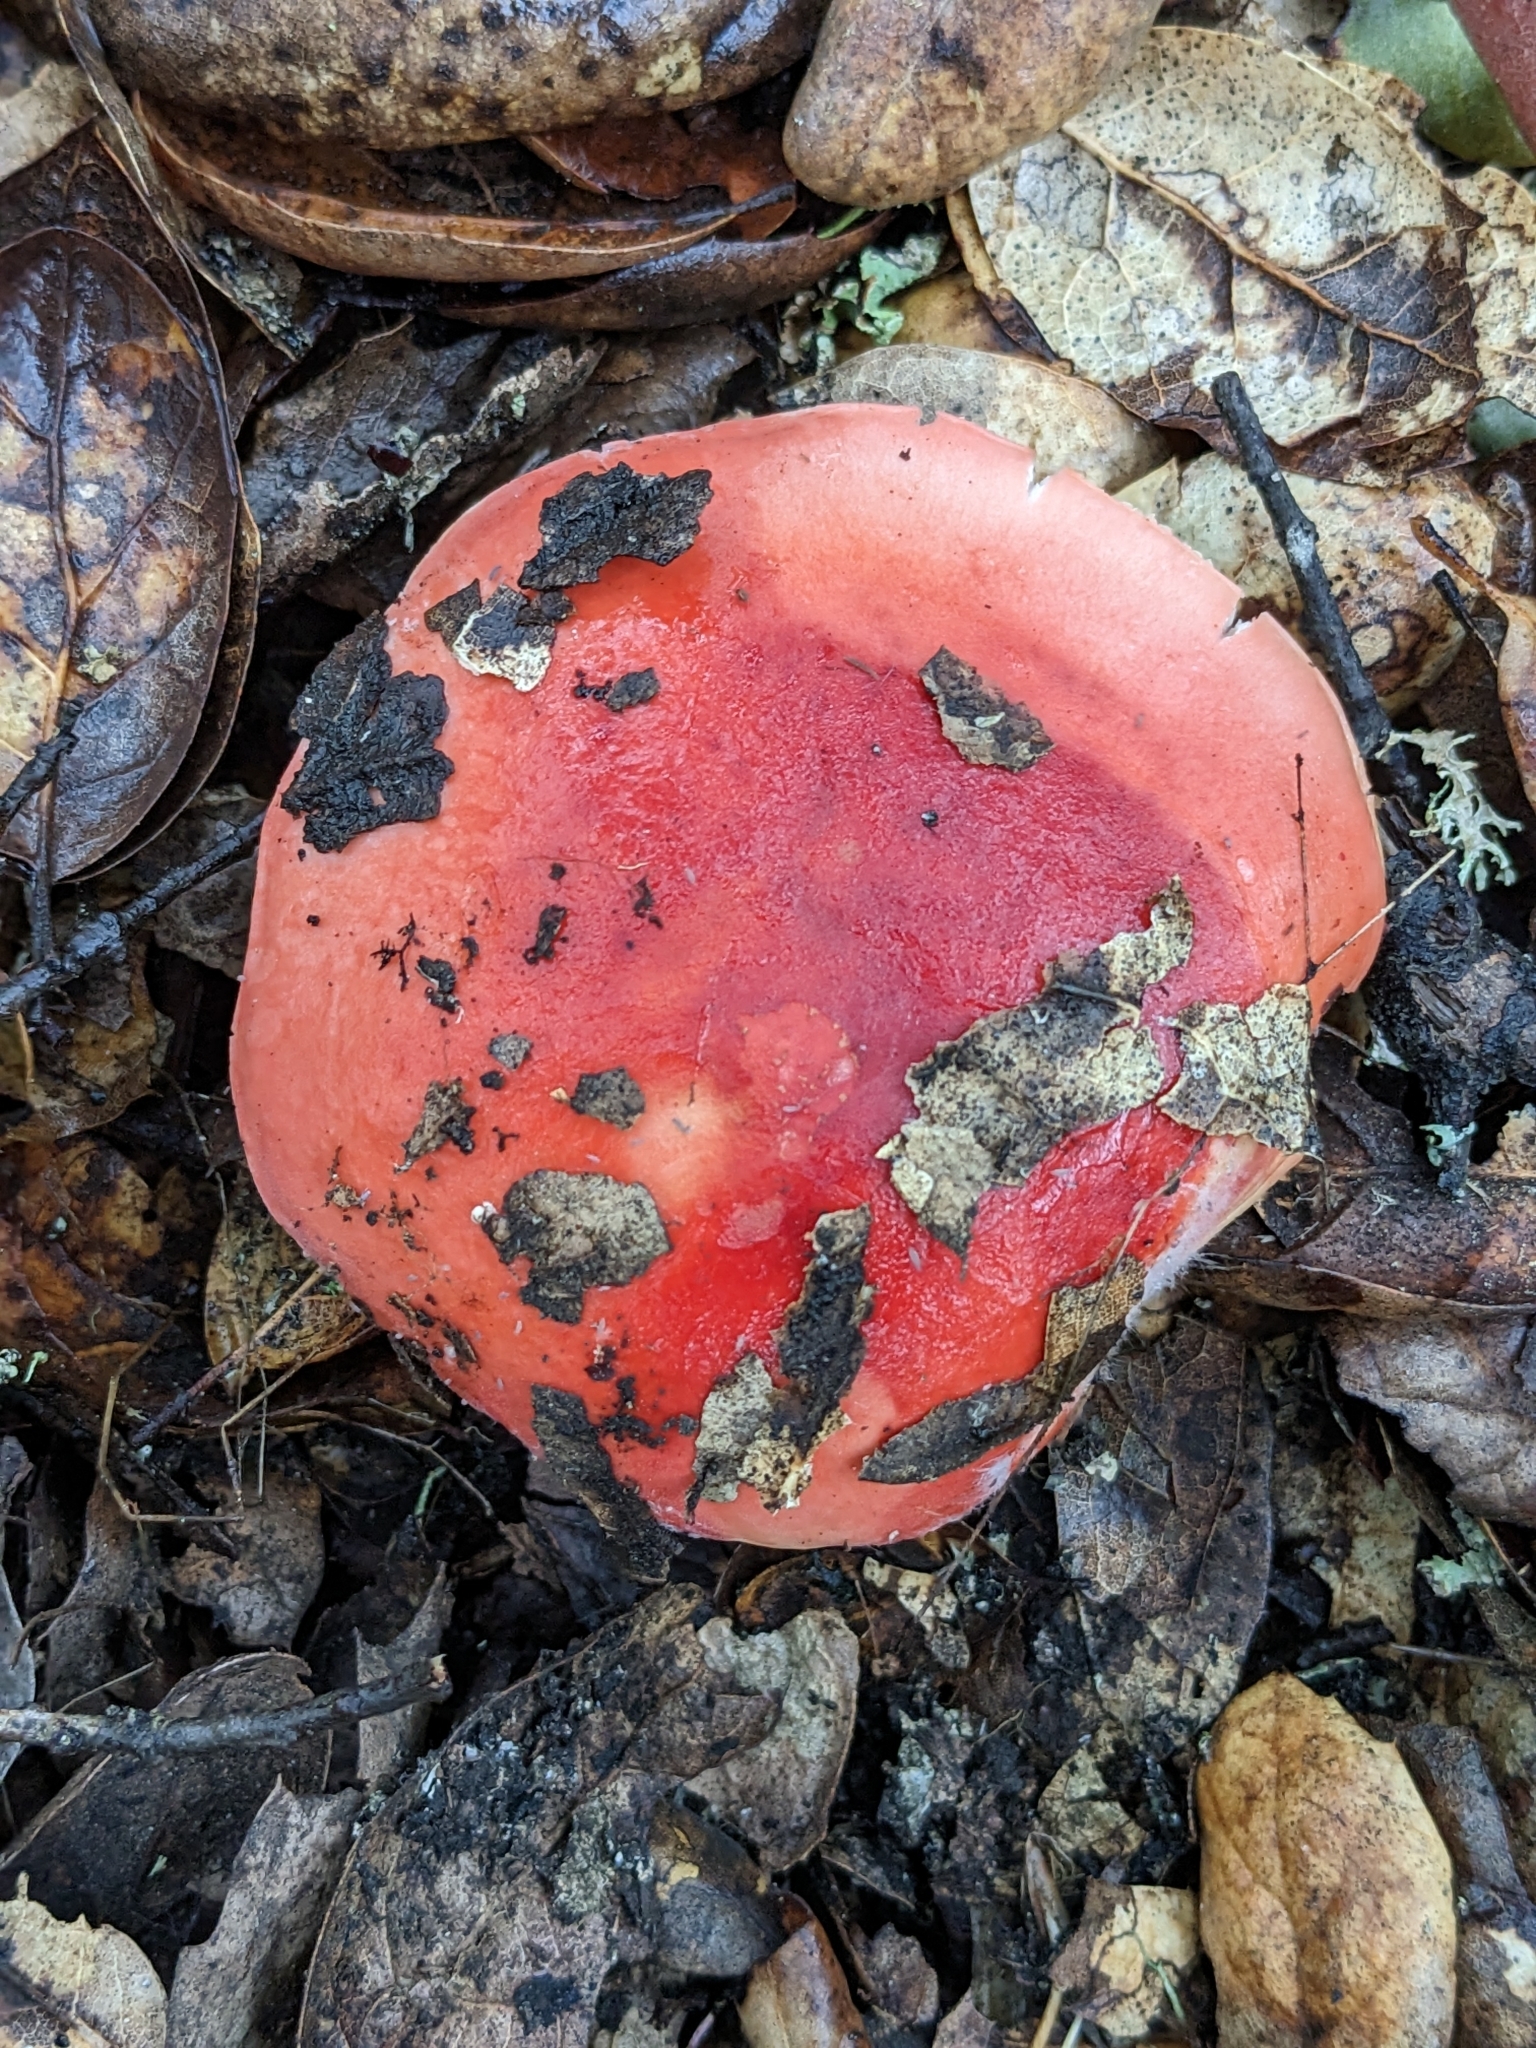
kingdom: Fungi
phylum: Basidiomycota
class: Agaricomycetes
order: Russulales
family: Russulaceae
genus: Russula
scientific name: Russula cremoricolor
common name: Winter russula
